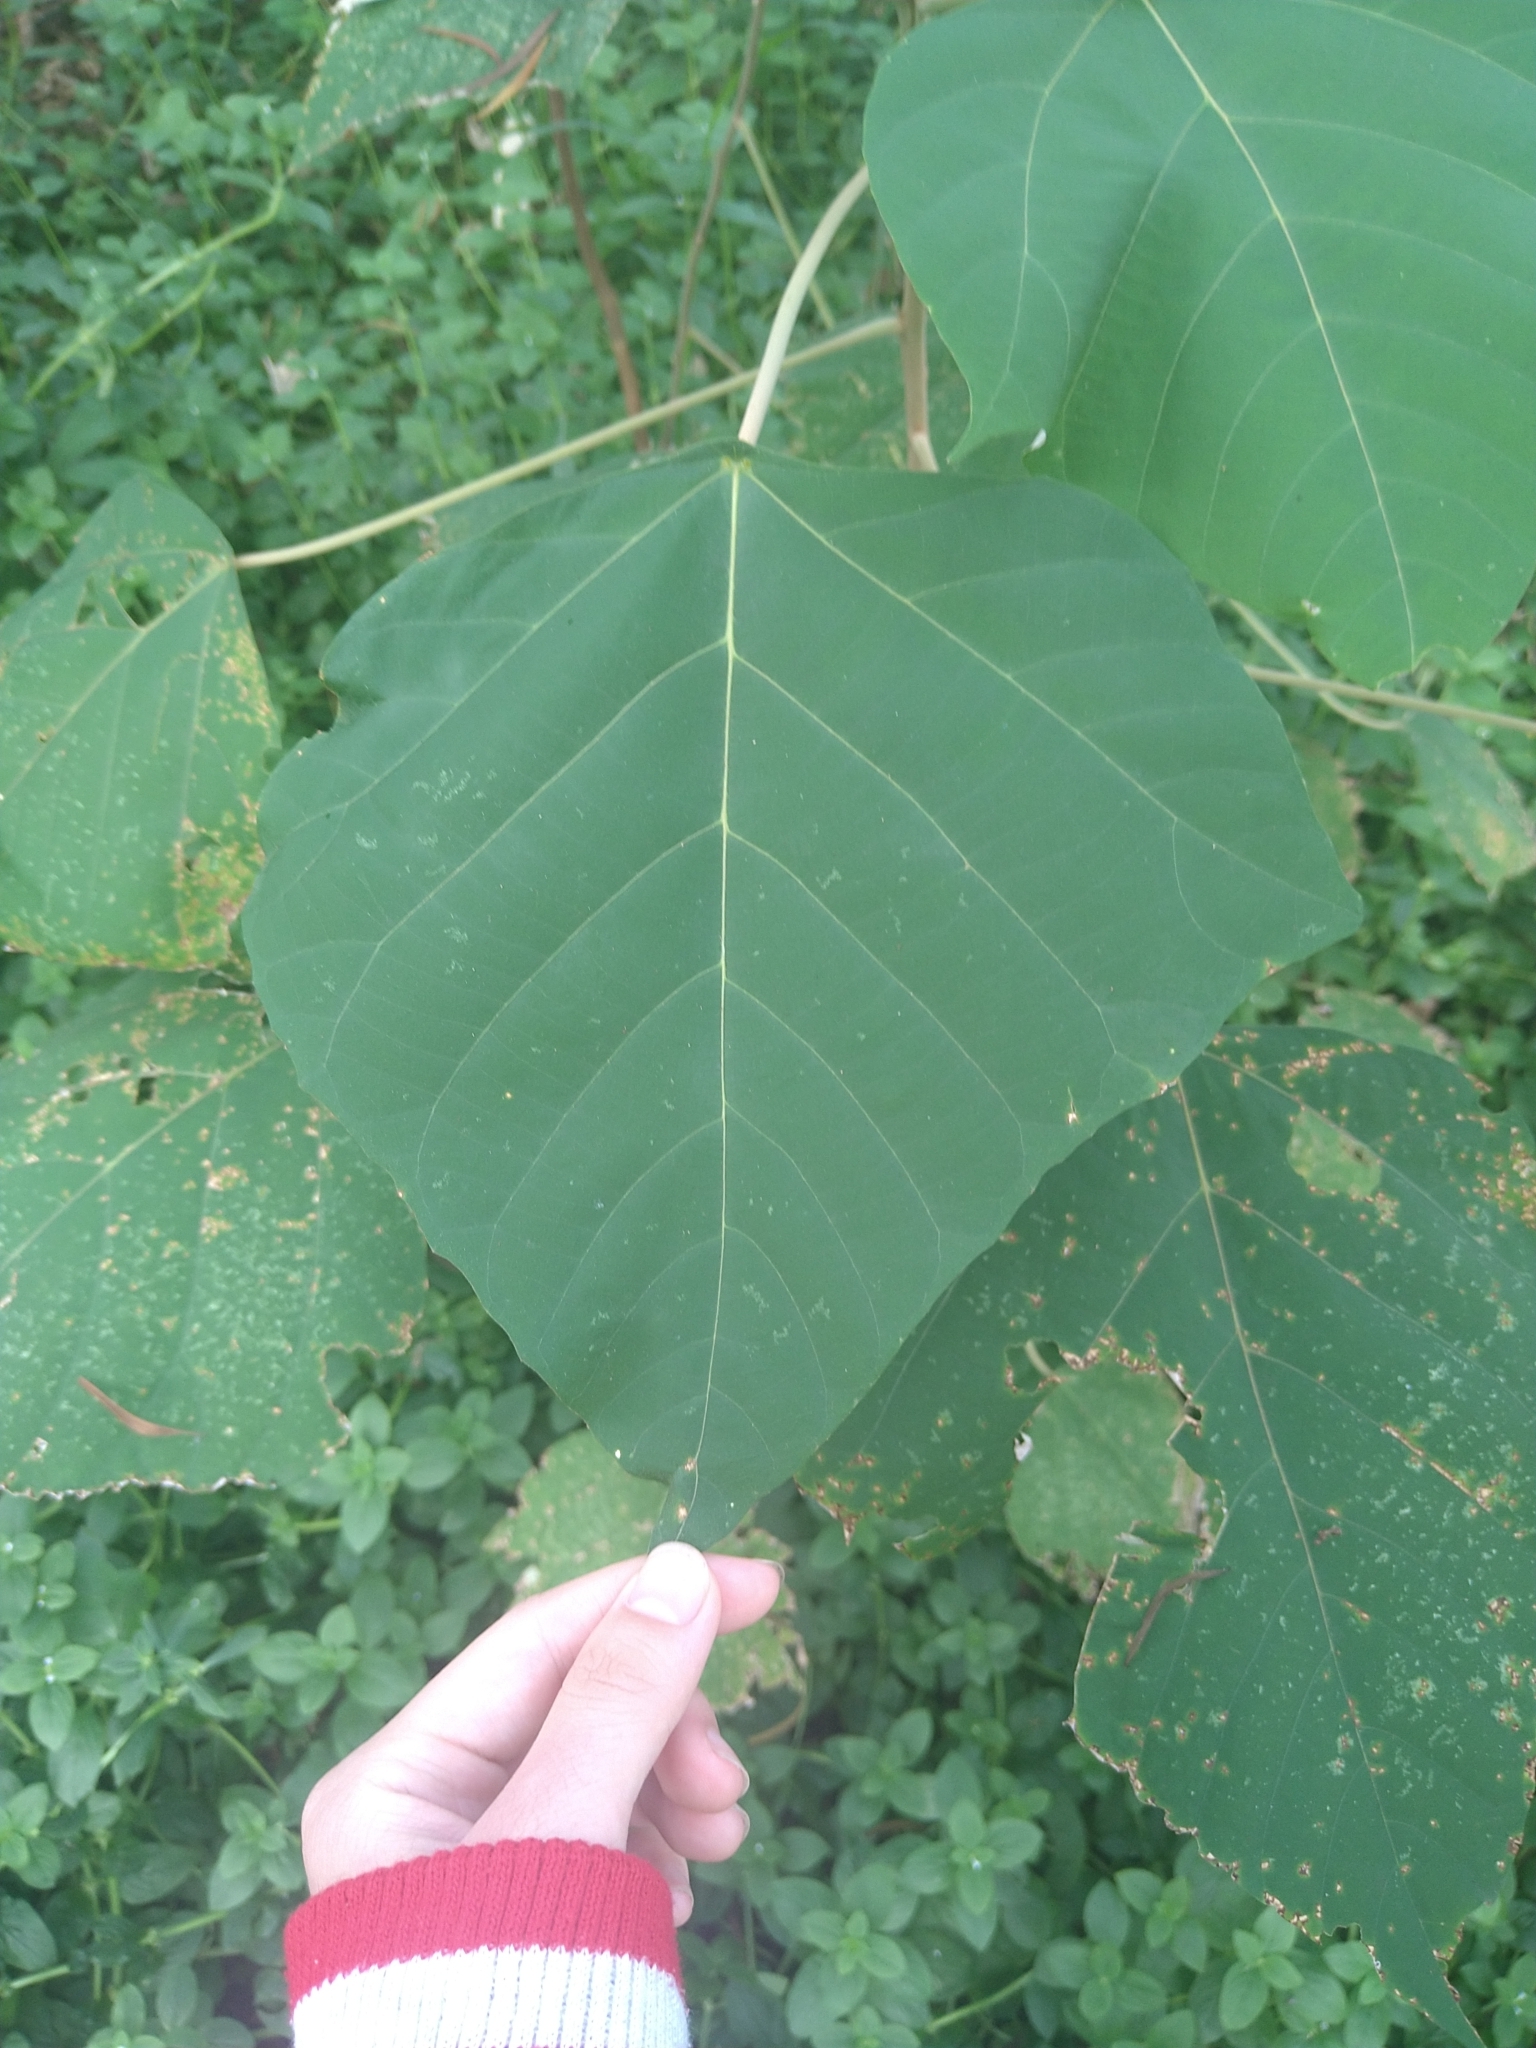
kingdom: Plantae
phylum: Tracheophyta
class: Magnoliopsida
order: Malpighiales
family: Euphorbiaceae
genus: Mallotus
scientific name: Mallotus paniculatus
